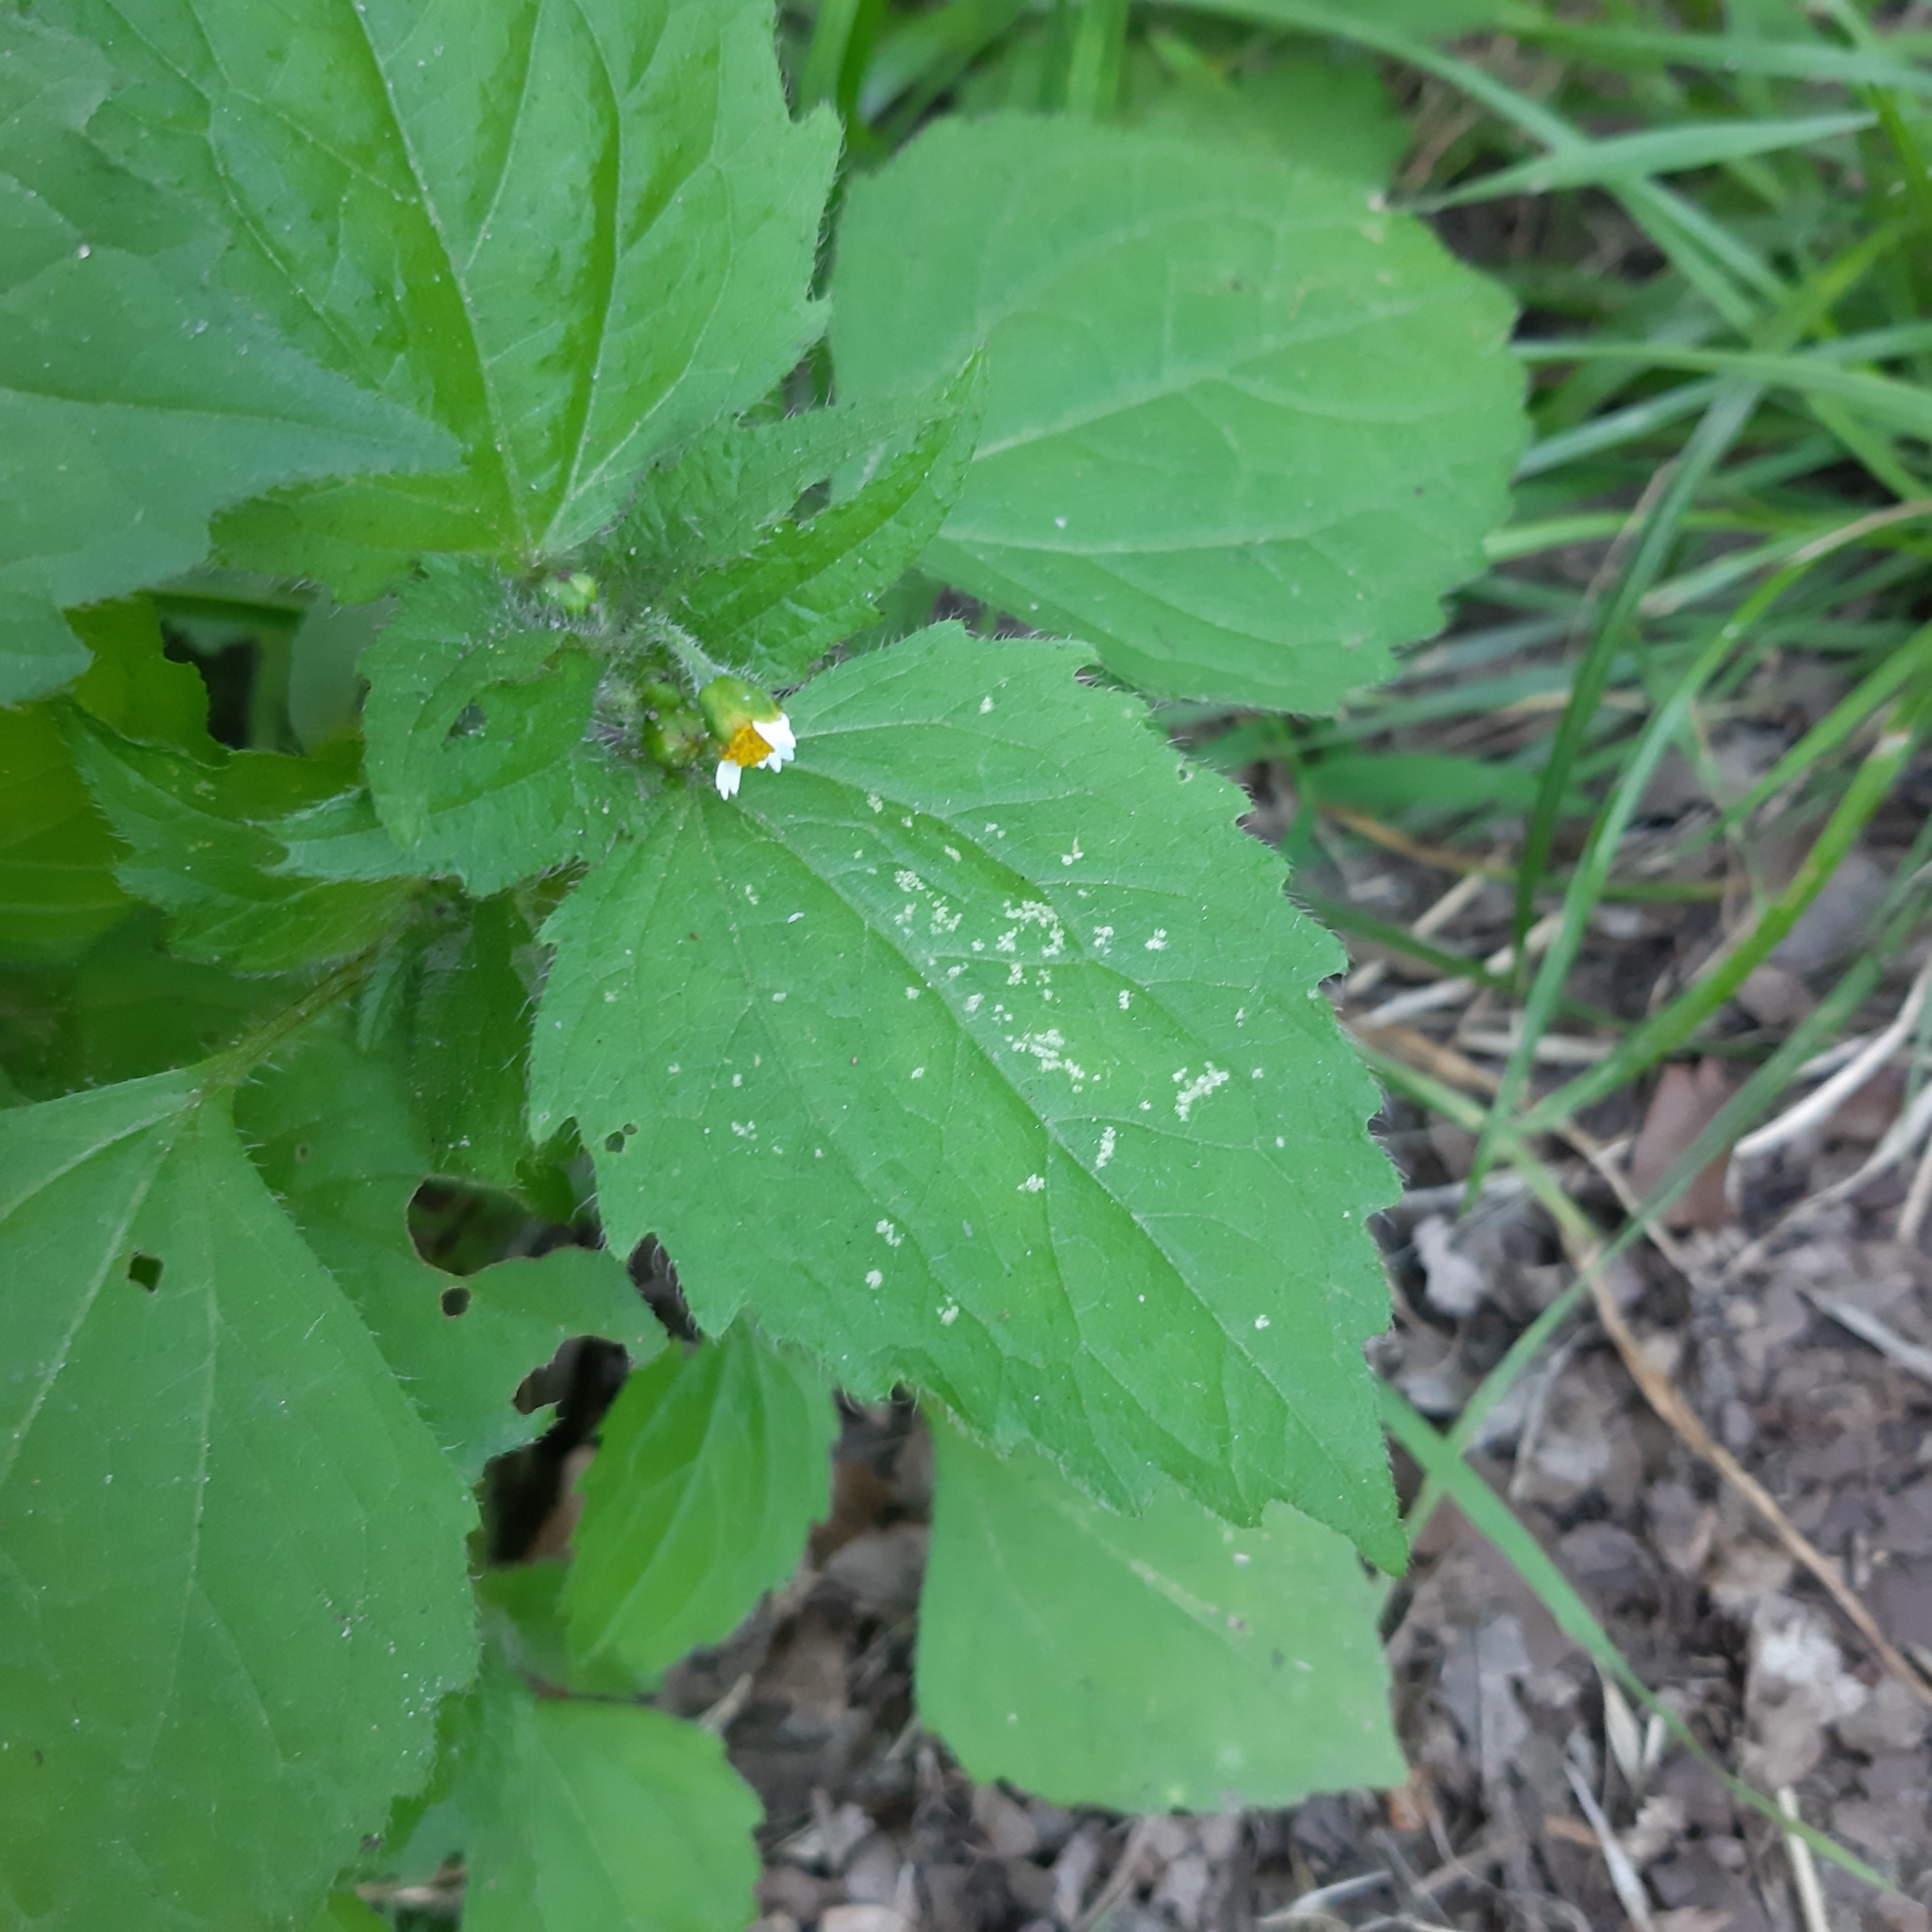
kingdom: Plantae
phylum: Tracheophyta
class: Magnoliopsida
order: Asterales
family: Asteraceae
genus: Galinsoga
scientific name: Galinsoga quadriradiata
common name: Shaggy soldier
